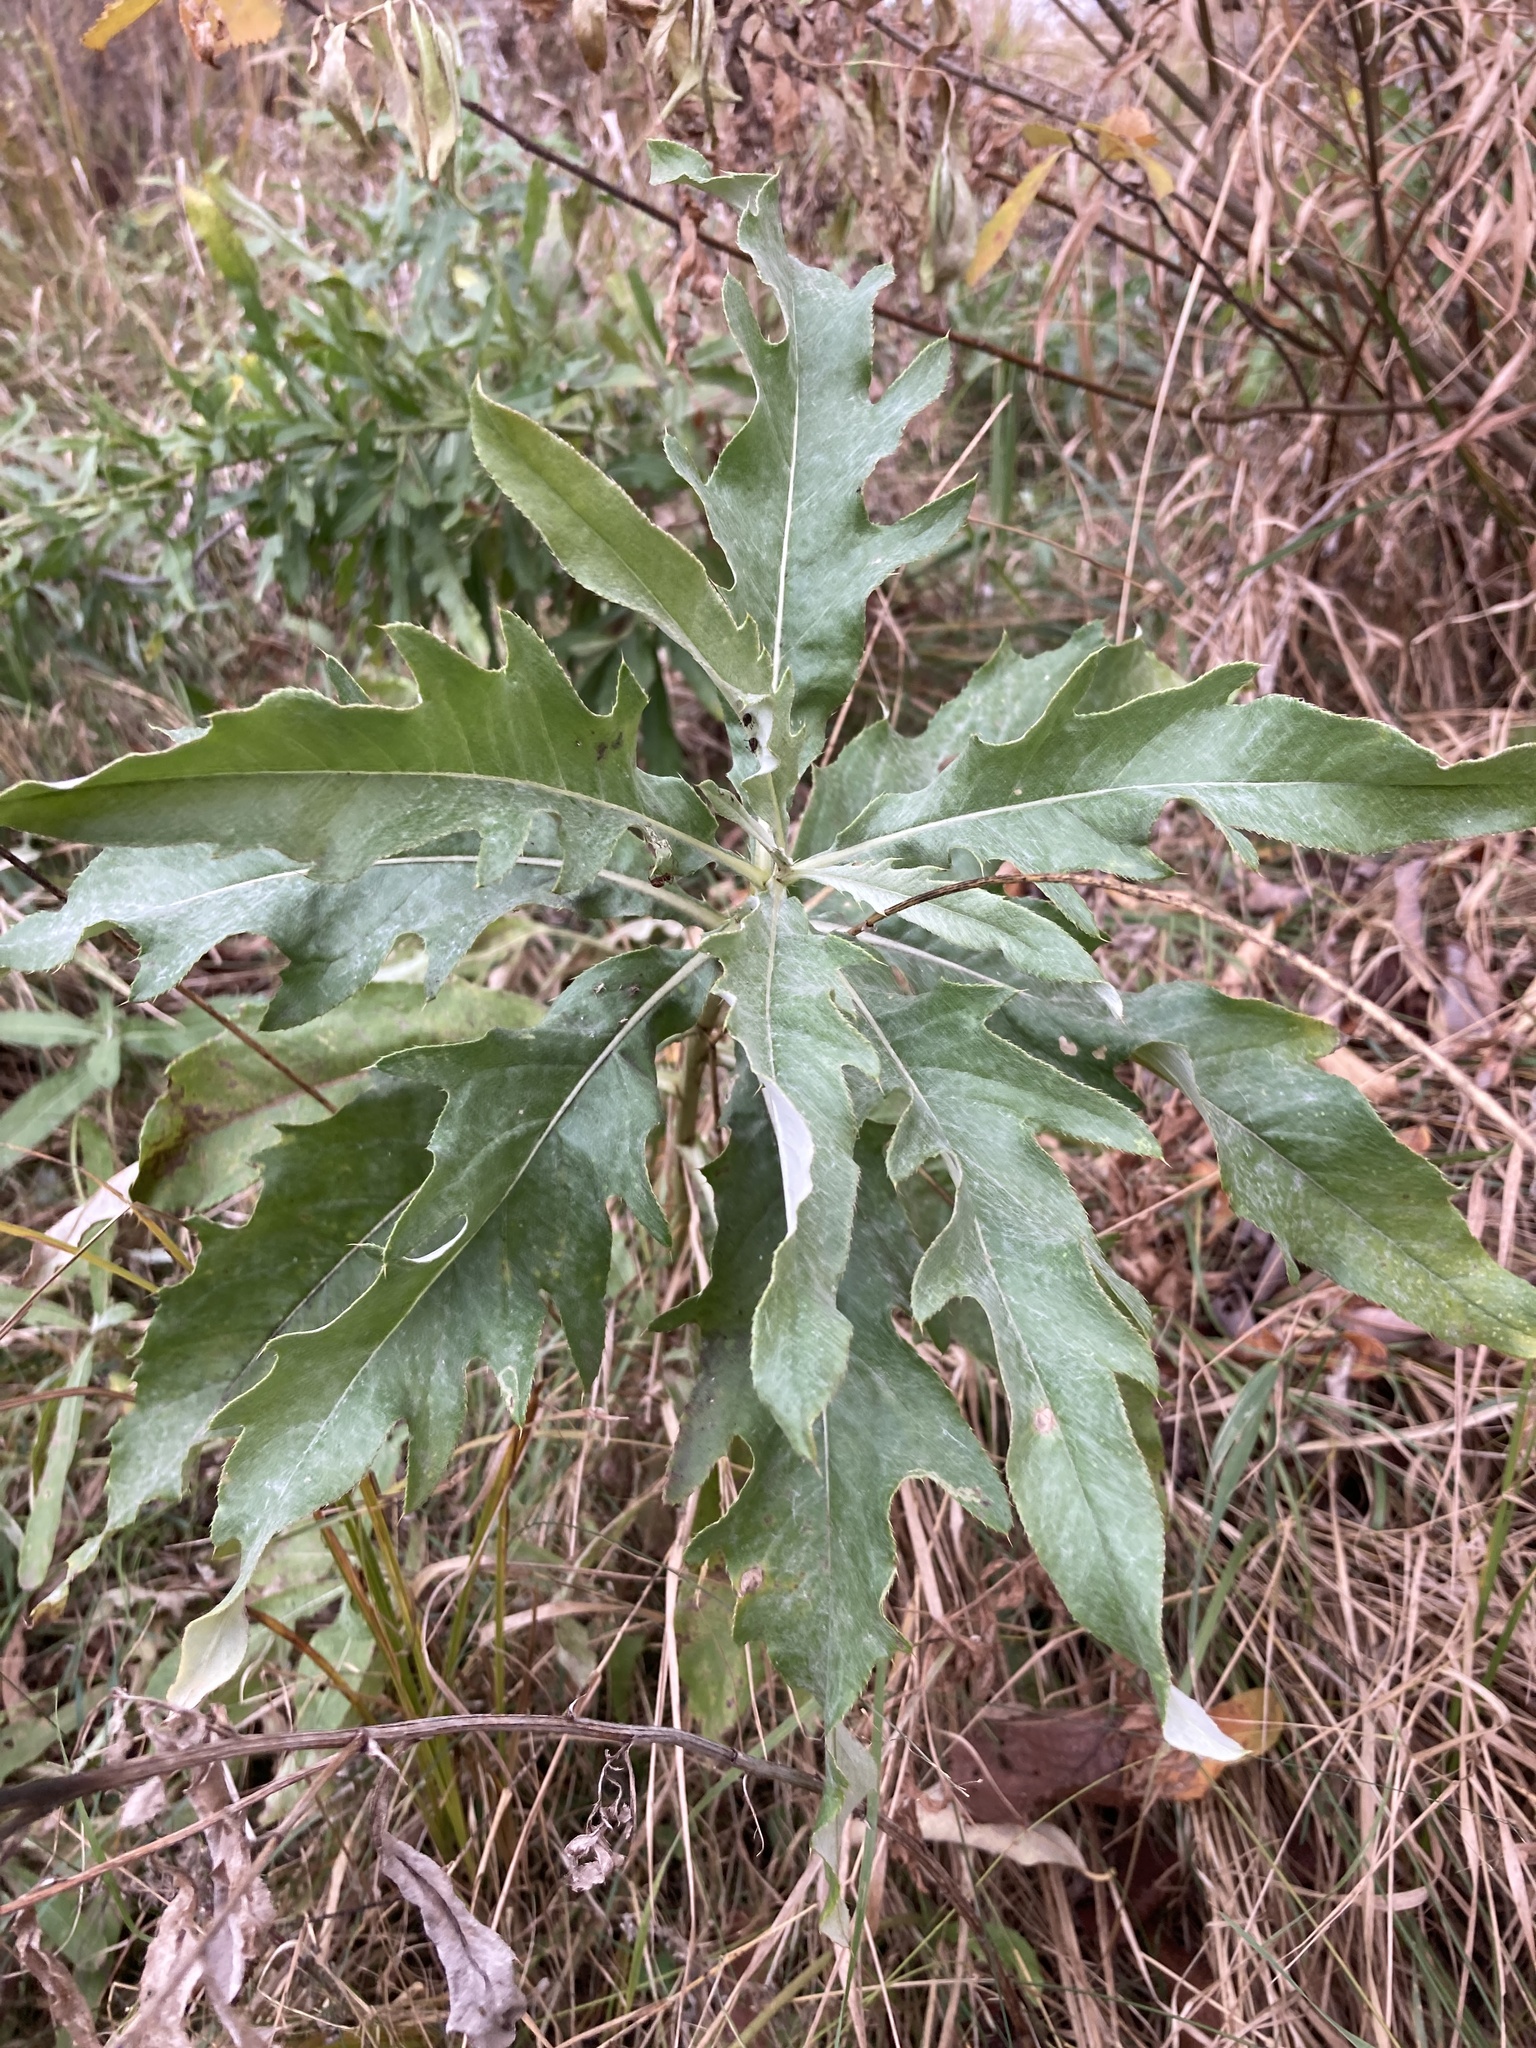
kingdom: Plantae
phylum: Tracheophyta
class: Magnoliopsida
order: Asterales
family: Asteraceae
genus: Cirsium
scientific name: Cirsium arvense
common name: Creeping thistle
